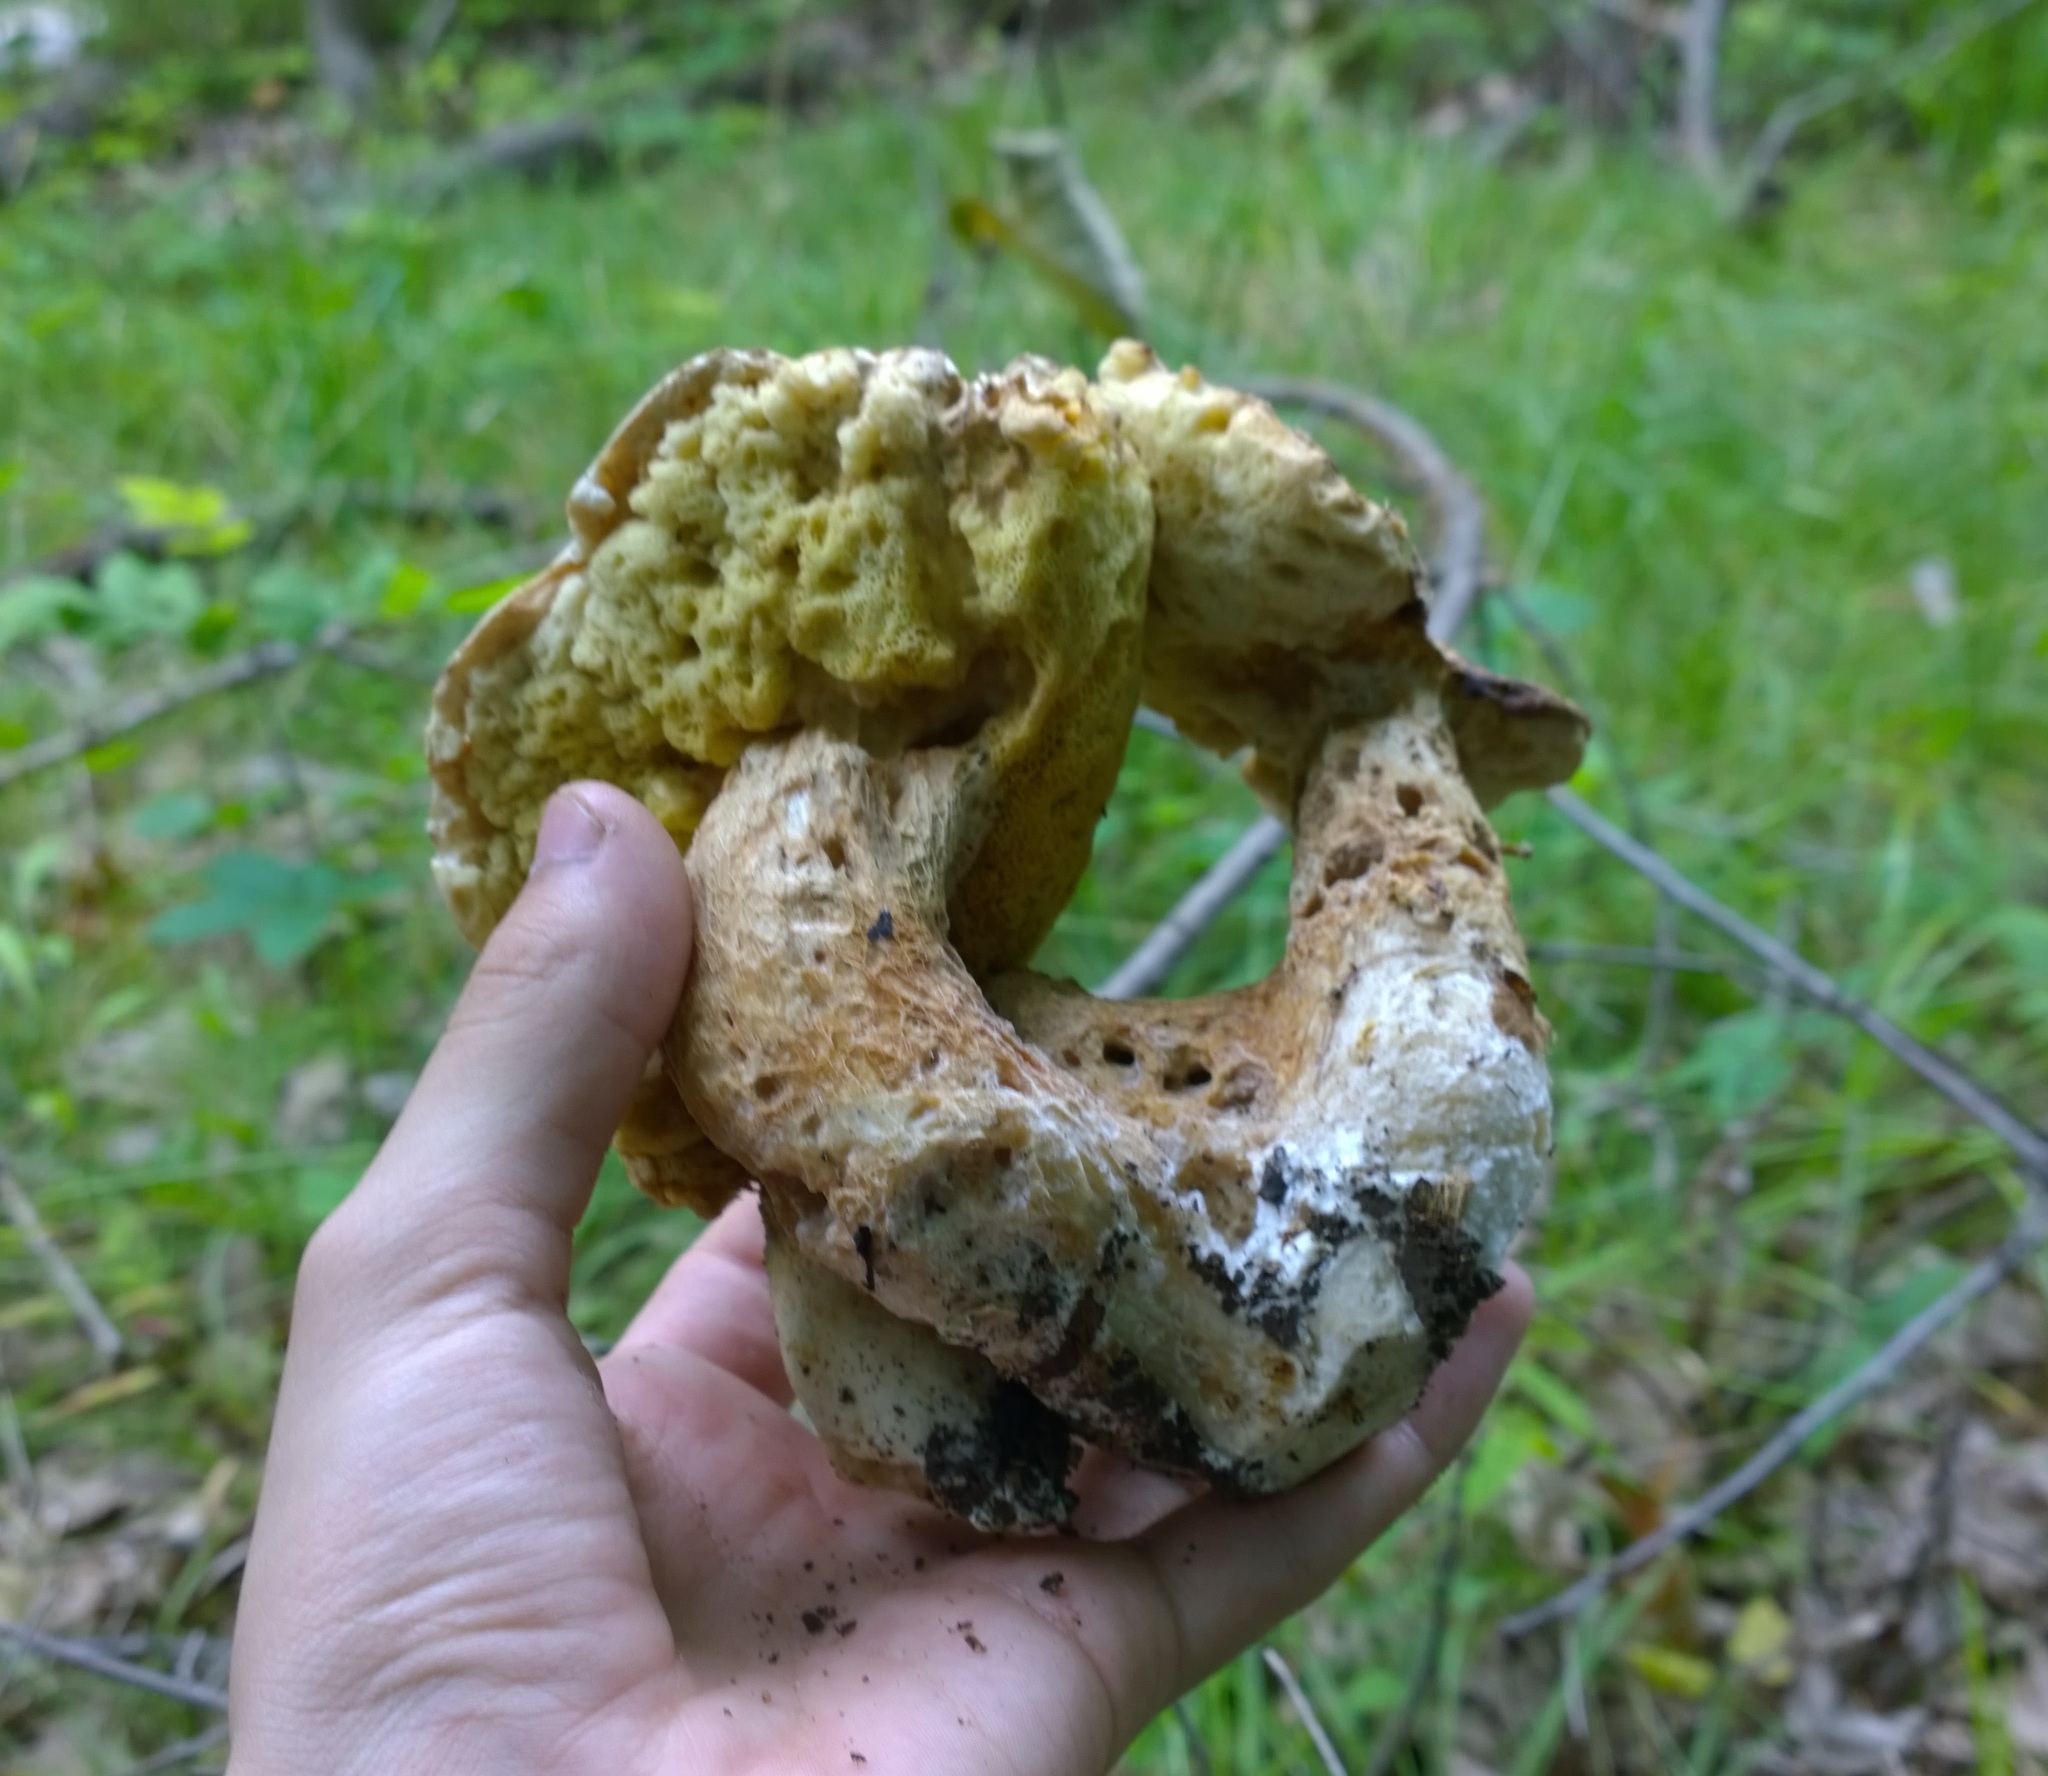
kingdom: Fungi
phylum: Basidiomycota
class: Agaricomycetes
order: Boletales
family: Boletaceae
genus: Boletus
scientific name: Boletus atkinsonii
